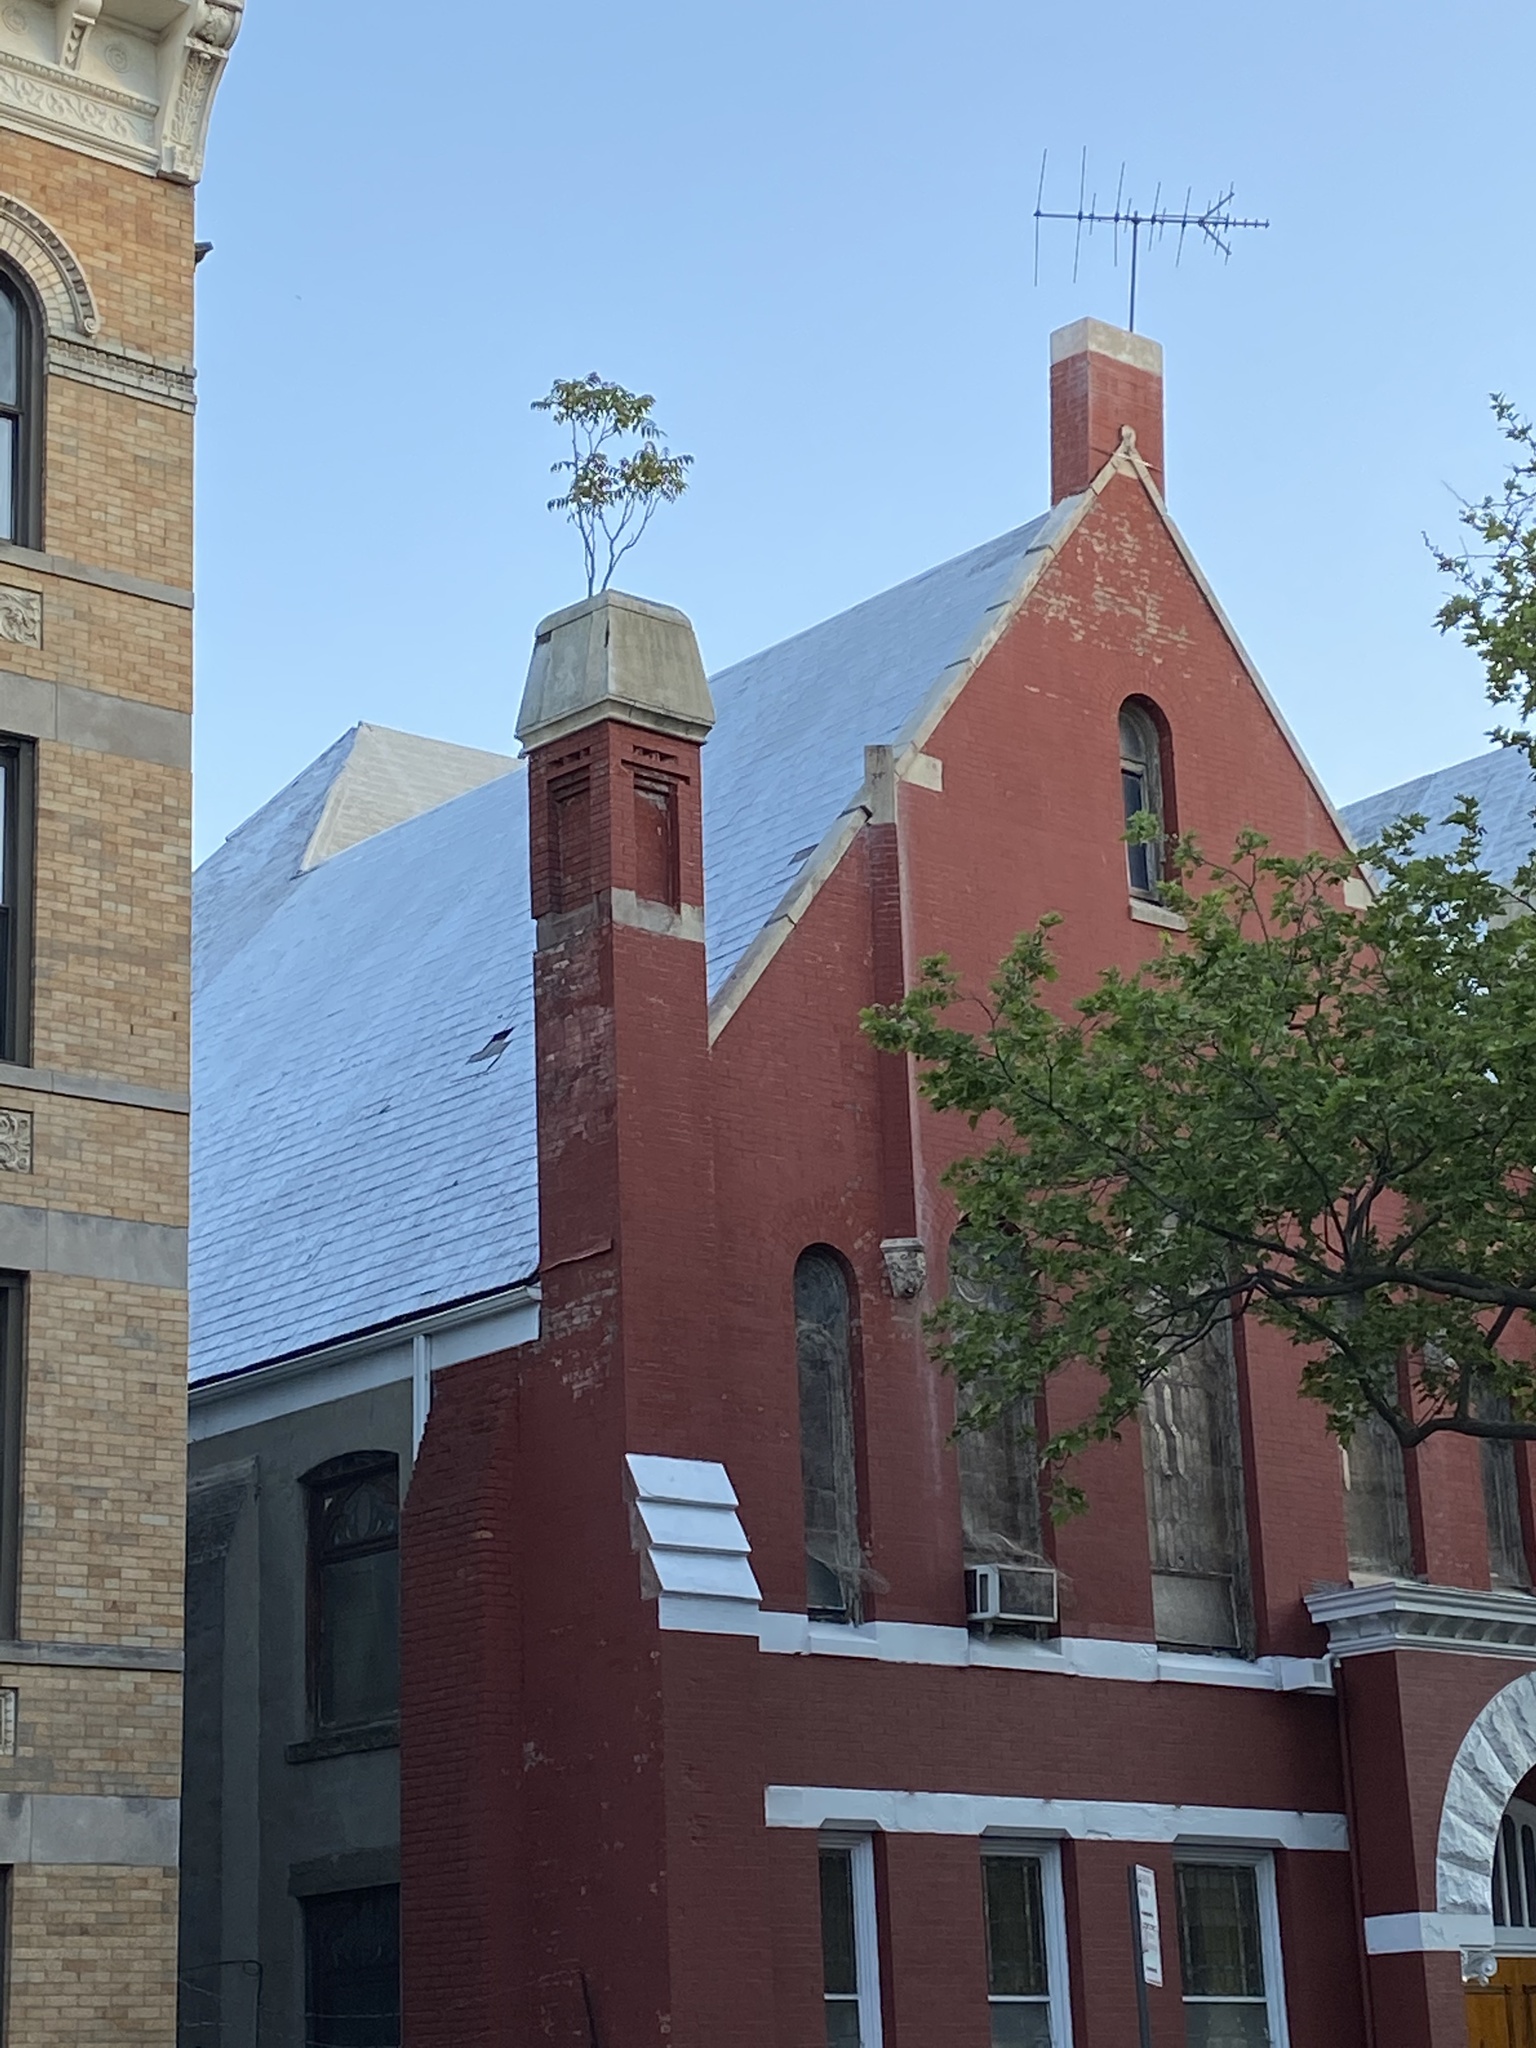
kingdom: Plantae
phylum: Tracheophyta
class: Magnoliopsida
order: Sapindales
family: Simaroubaceae
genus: Ailanthus
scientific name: Ailanthus altissima
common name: Tree-of-heaven
